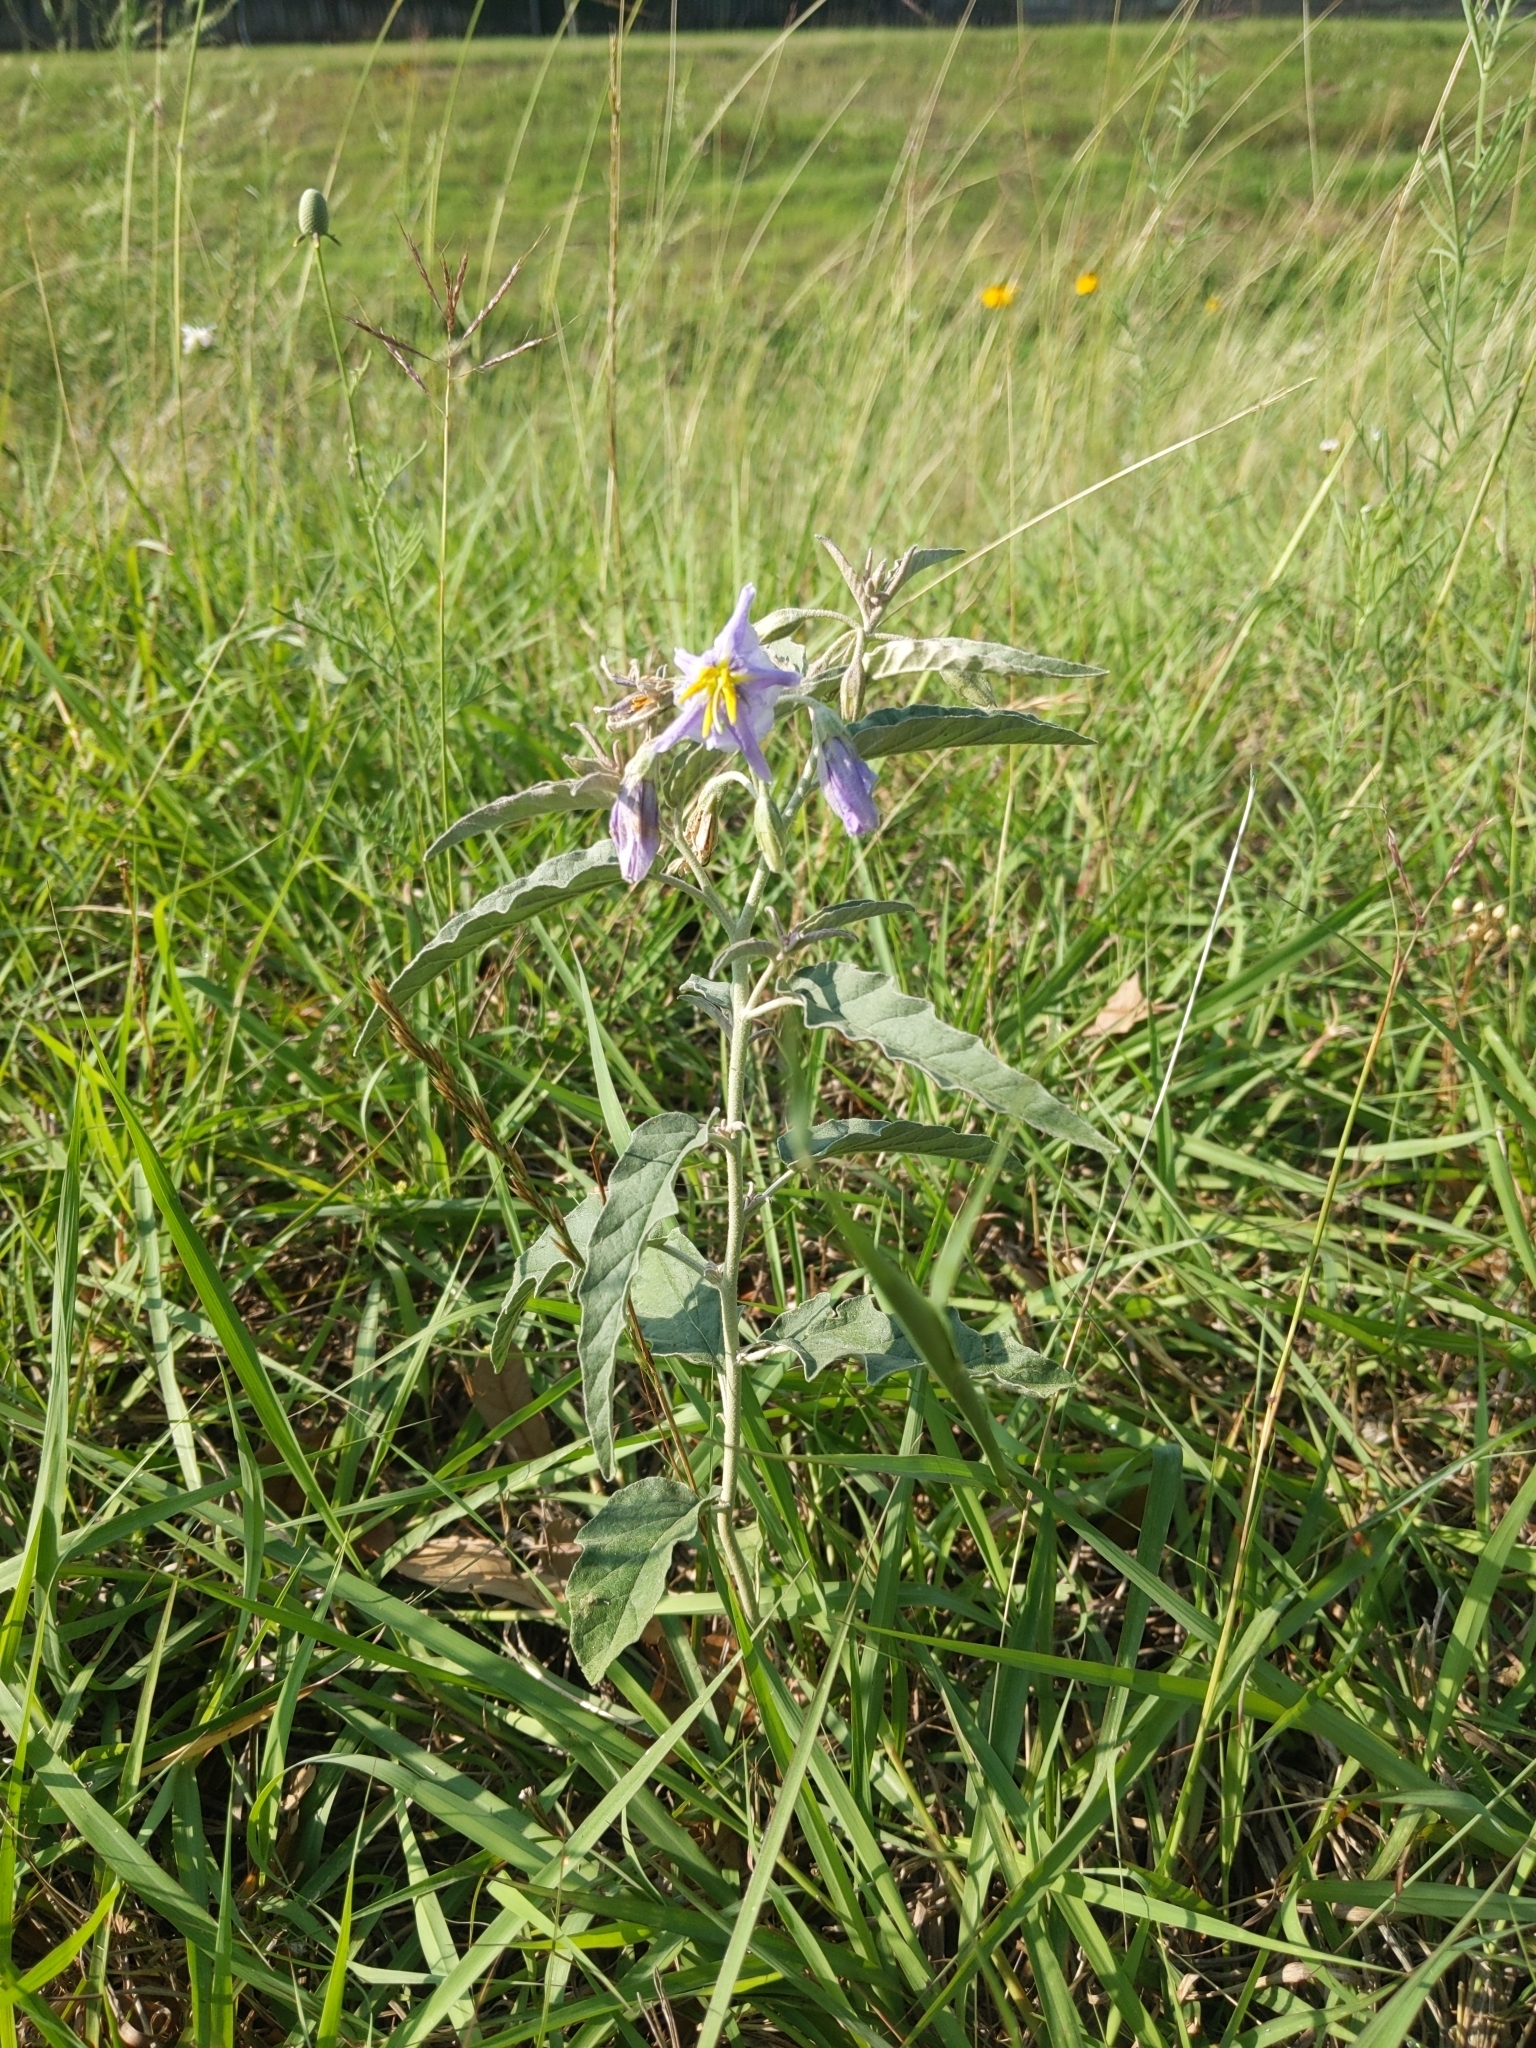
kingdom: Plantae
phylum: Tracheophyta
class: Magnoliopsida
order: Solanales
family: Solanaceae
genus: Solanum
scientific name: Solanum elaeagnifolium
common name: Silverleaf nightshade
